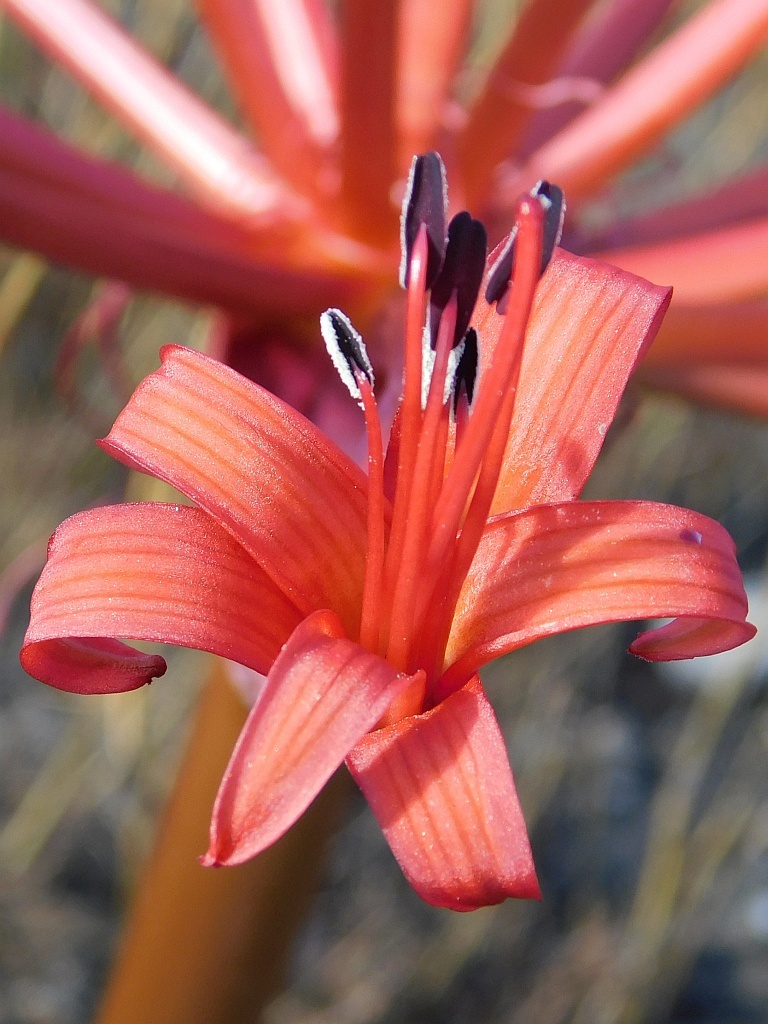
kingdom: Plantae
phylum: Tracheophyta
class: Liliopsida
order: Asparagales
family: Amaryllidaceae
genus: Brunsvigia
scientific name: Brunsvigia orientalis
